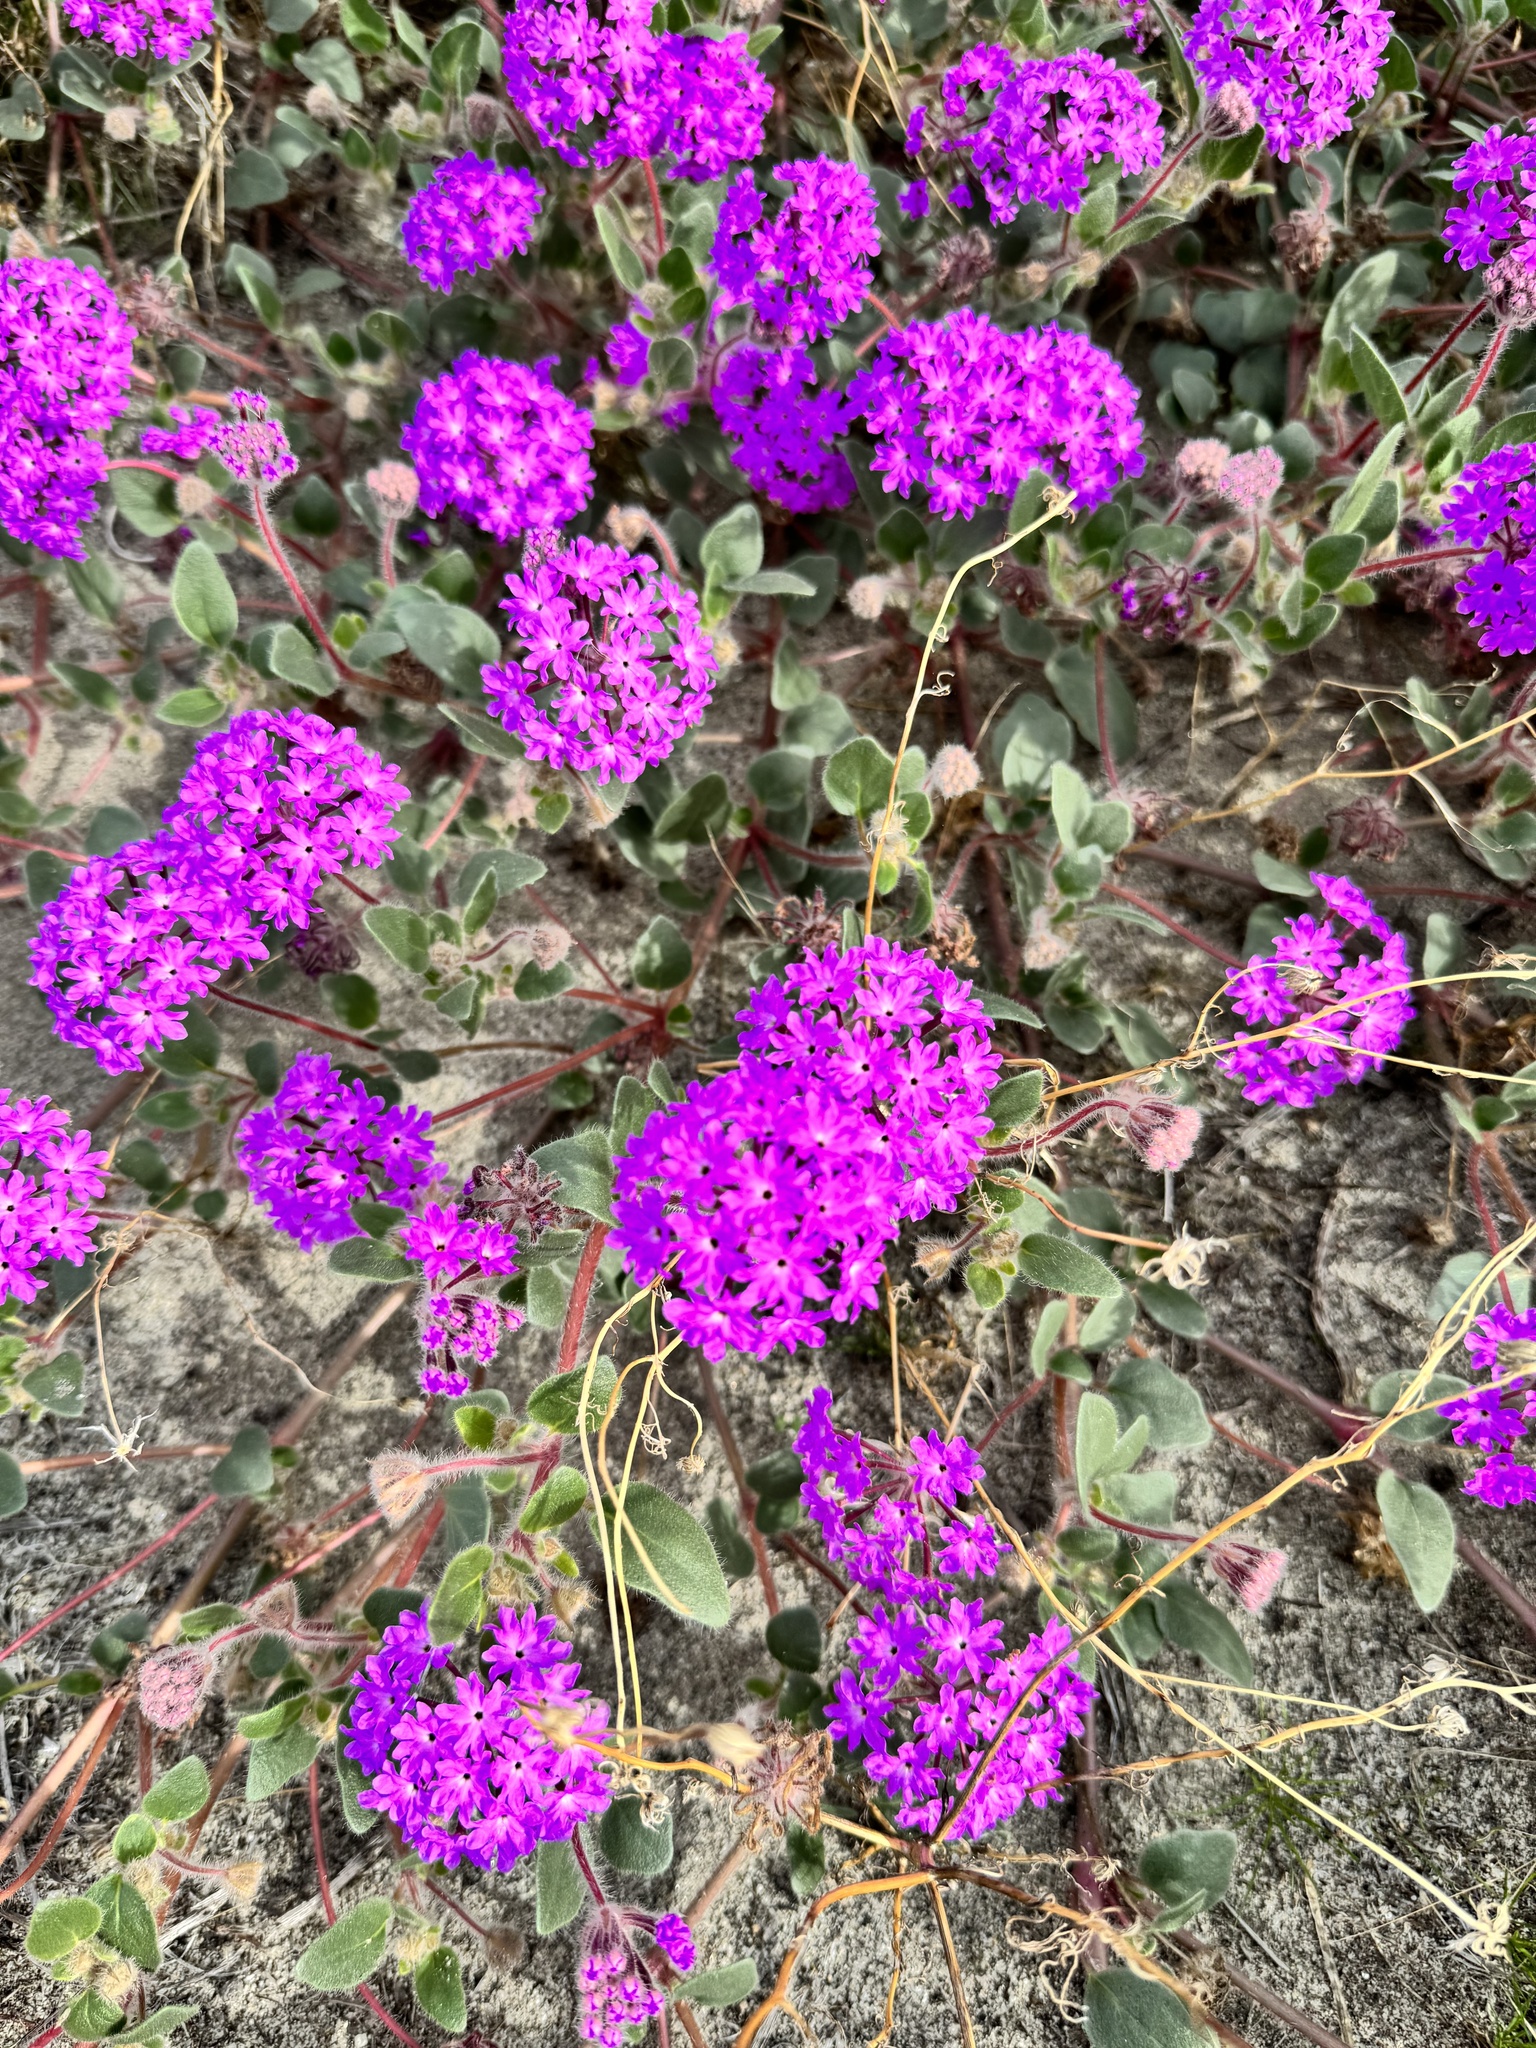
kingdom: Plantae
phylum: Tracheophyta
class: Magnoliopsida
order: Caryophyllales
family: Nyctaginaceae
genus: Abronia
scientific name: Abronia villosa
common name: Desert sand-verbena
